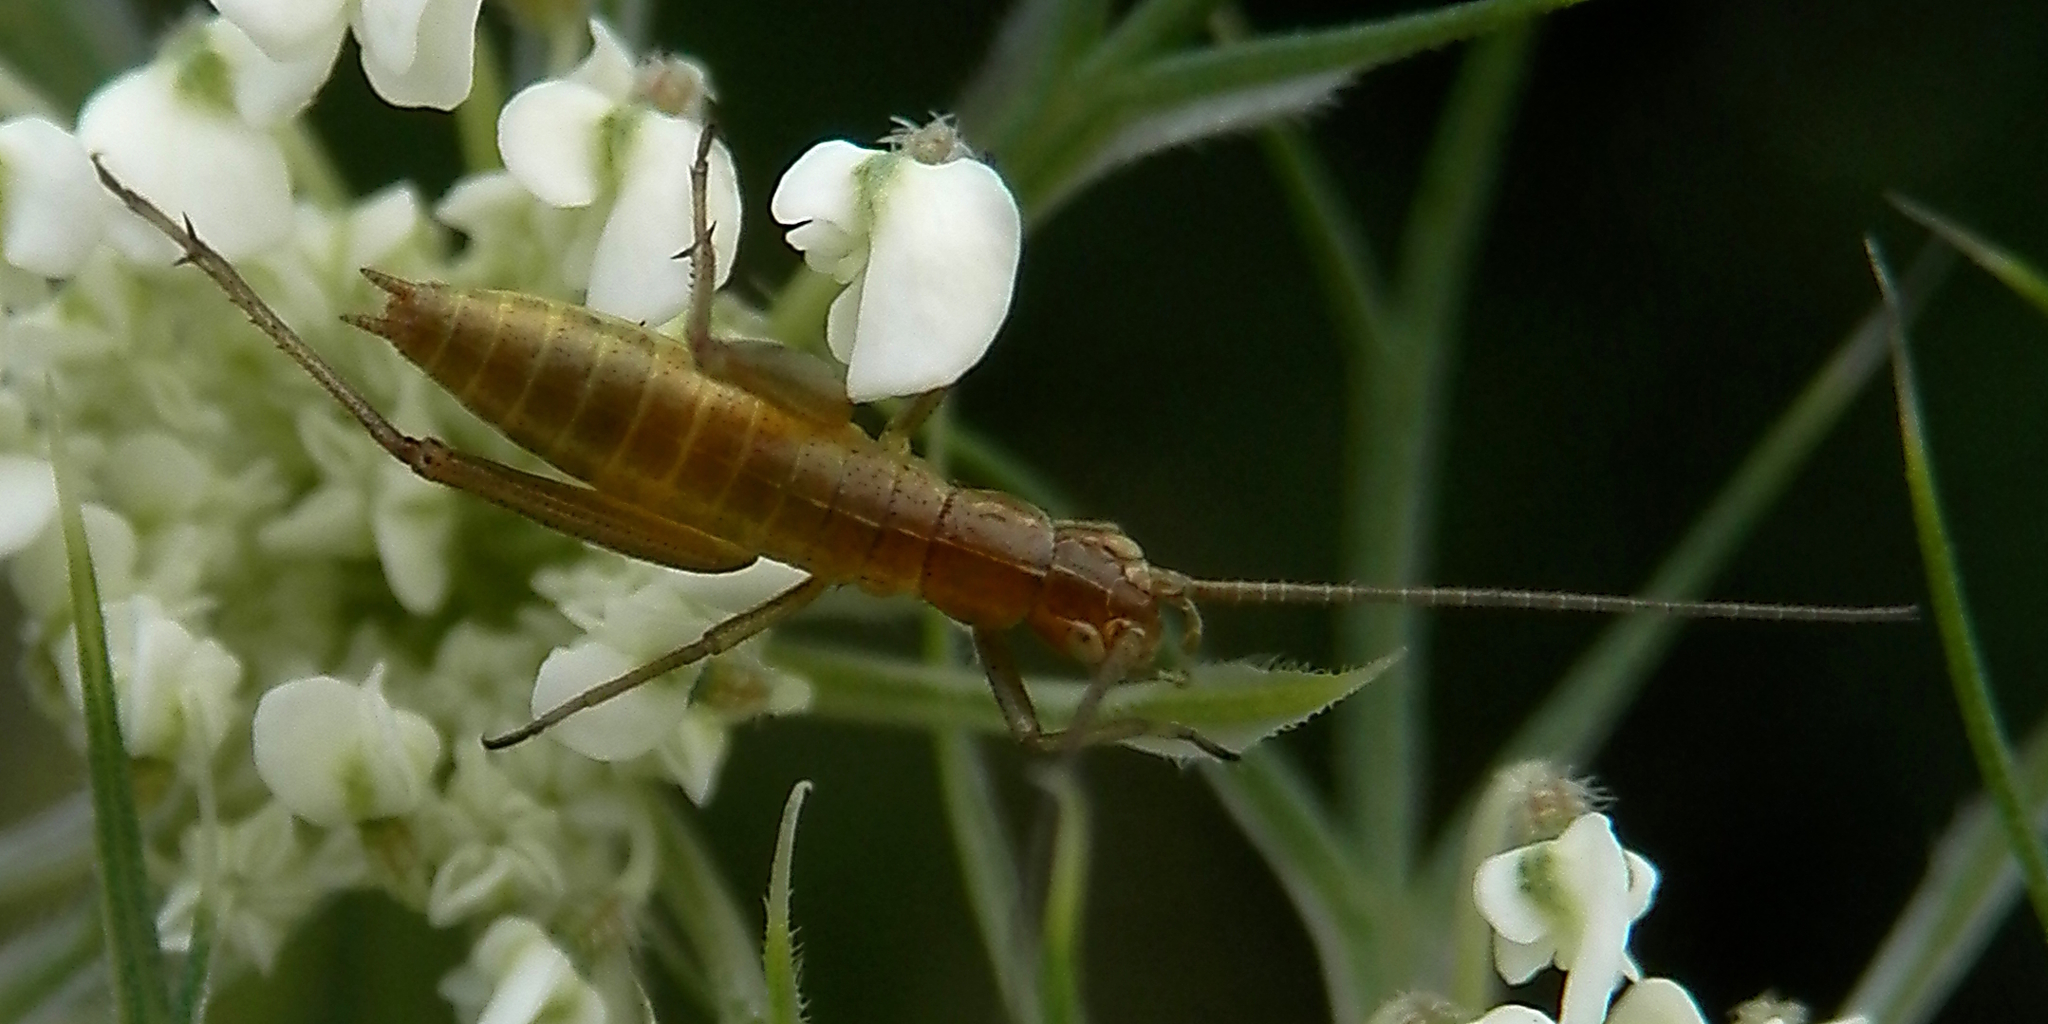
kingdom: Animalia
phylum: Arthropoda
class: Insecta
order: Orthoptera
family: Gryllidae
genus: Oecanthus
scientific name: Oecanthus pini
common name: Pine tree cricket
